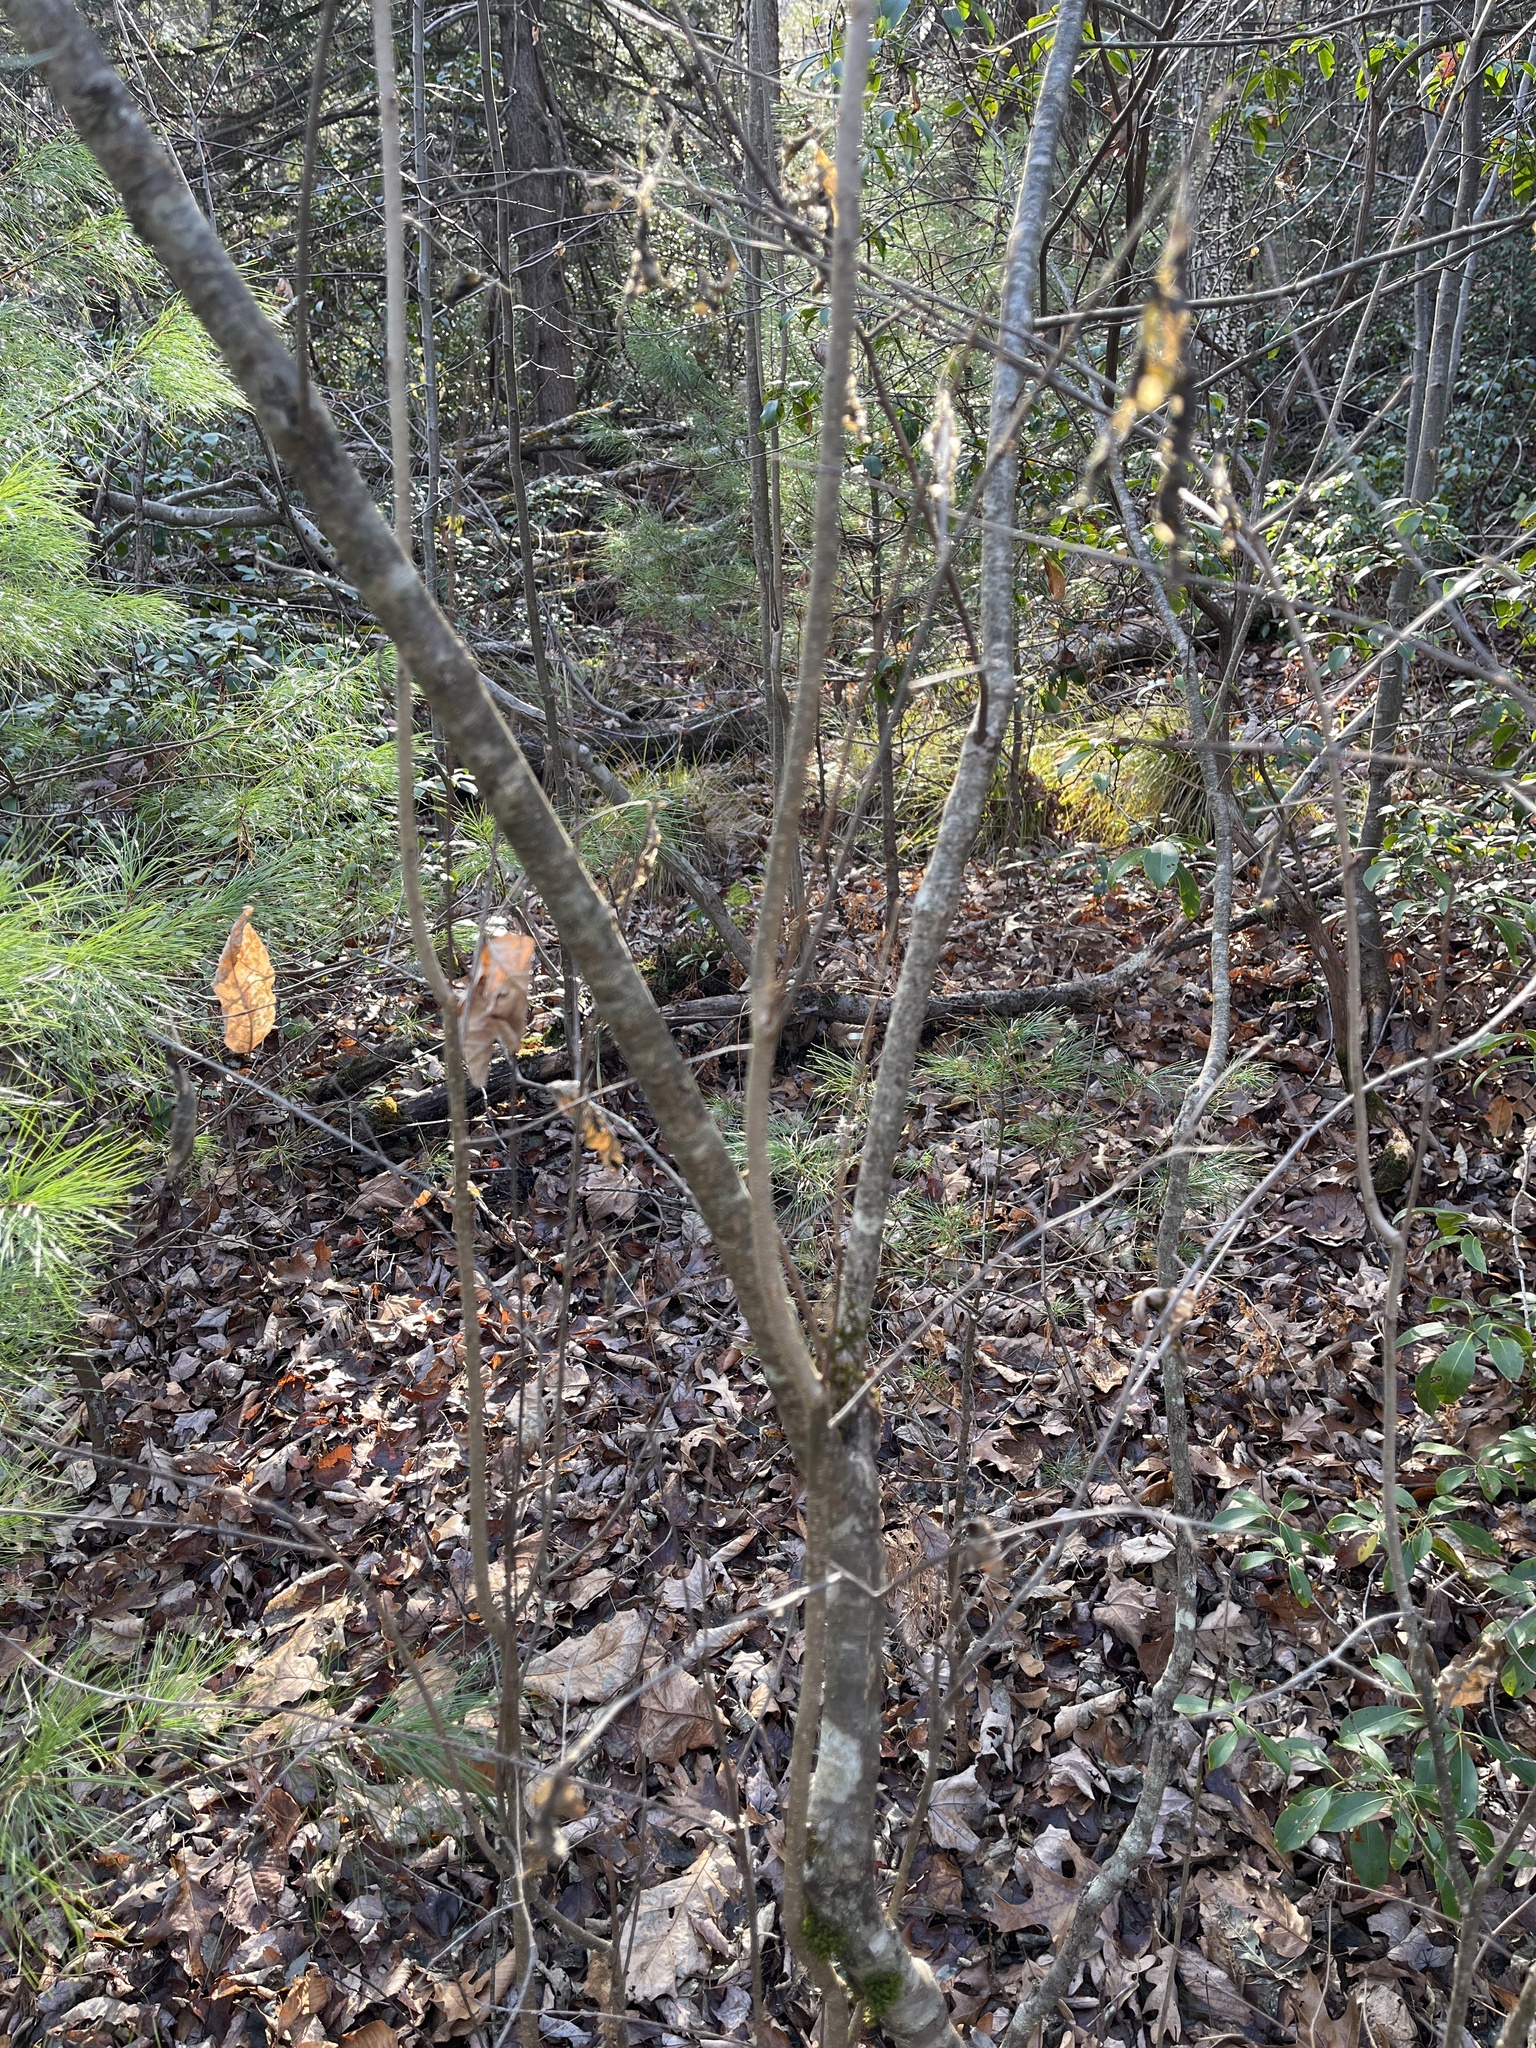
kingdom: Plantae
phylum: Tracheophyta
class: Magnoliopsida
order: Aquifoliales
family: Aquifoliaceae
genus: Ilex
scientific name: Ilex verticillata
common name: Virginia winterberry
